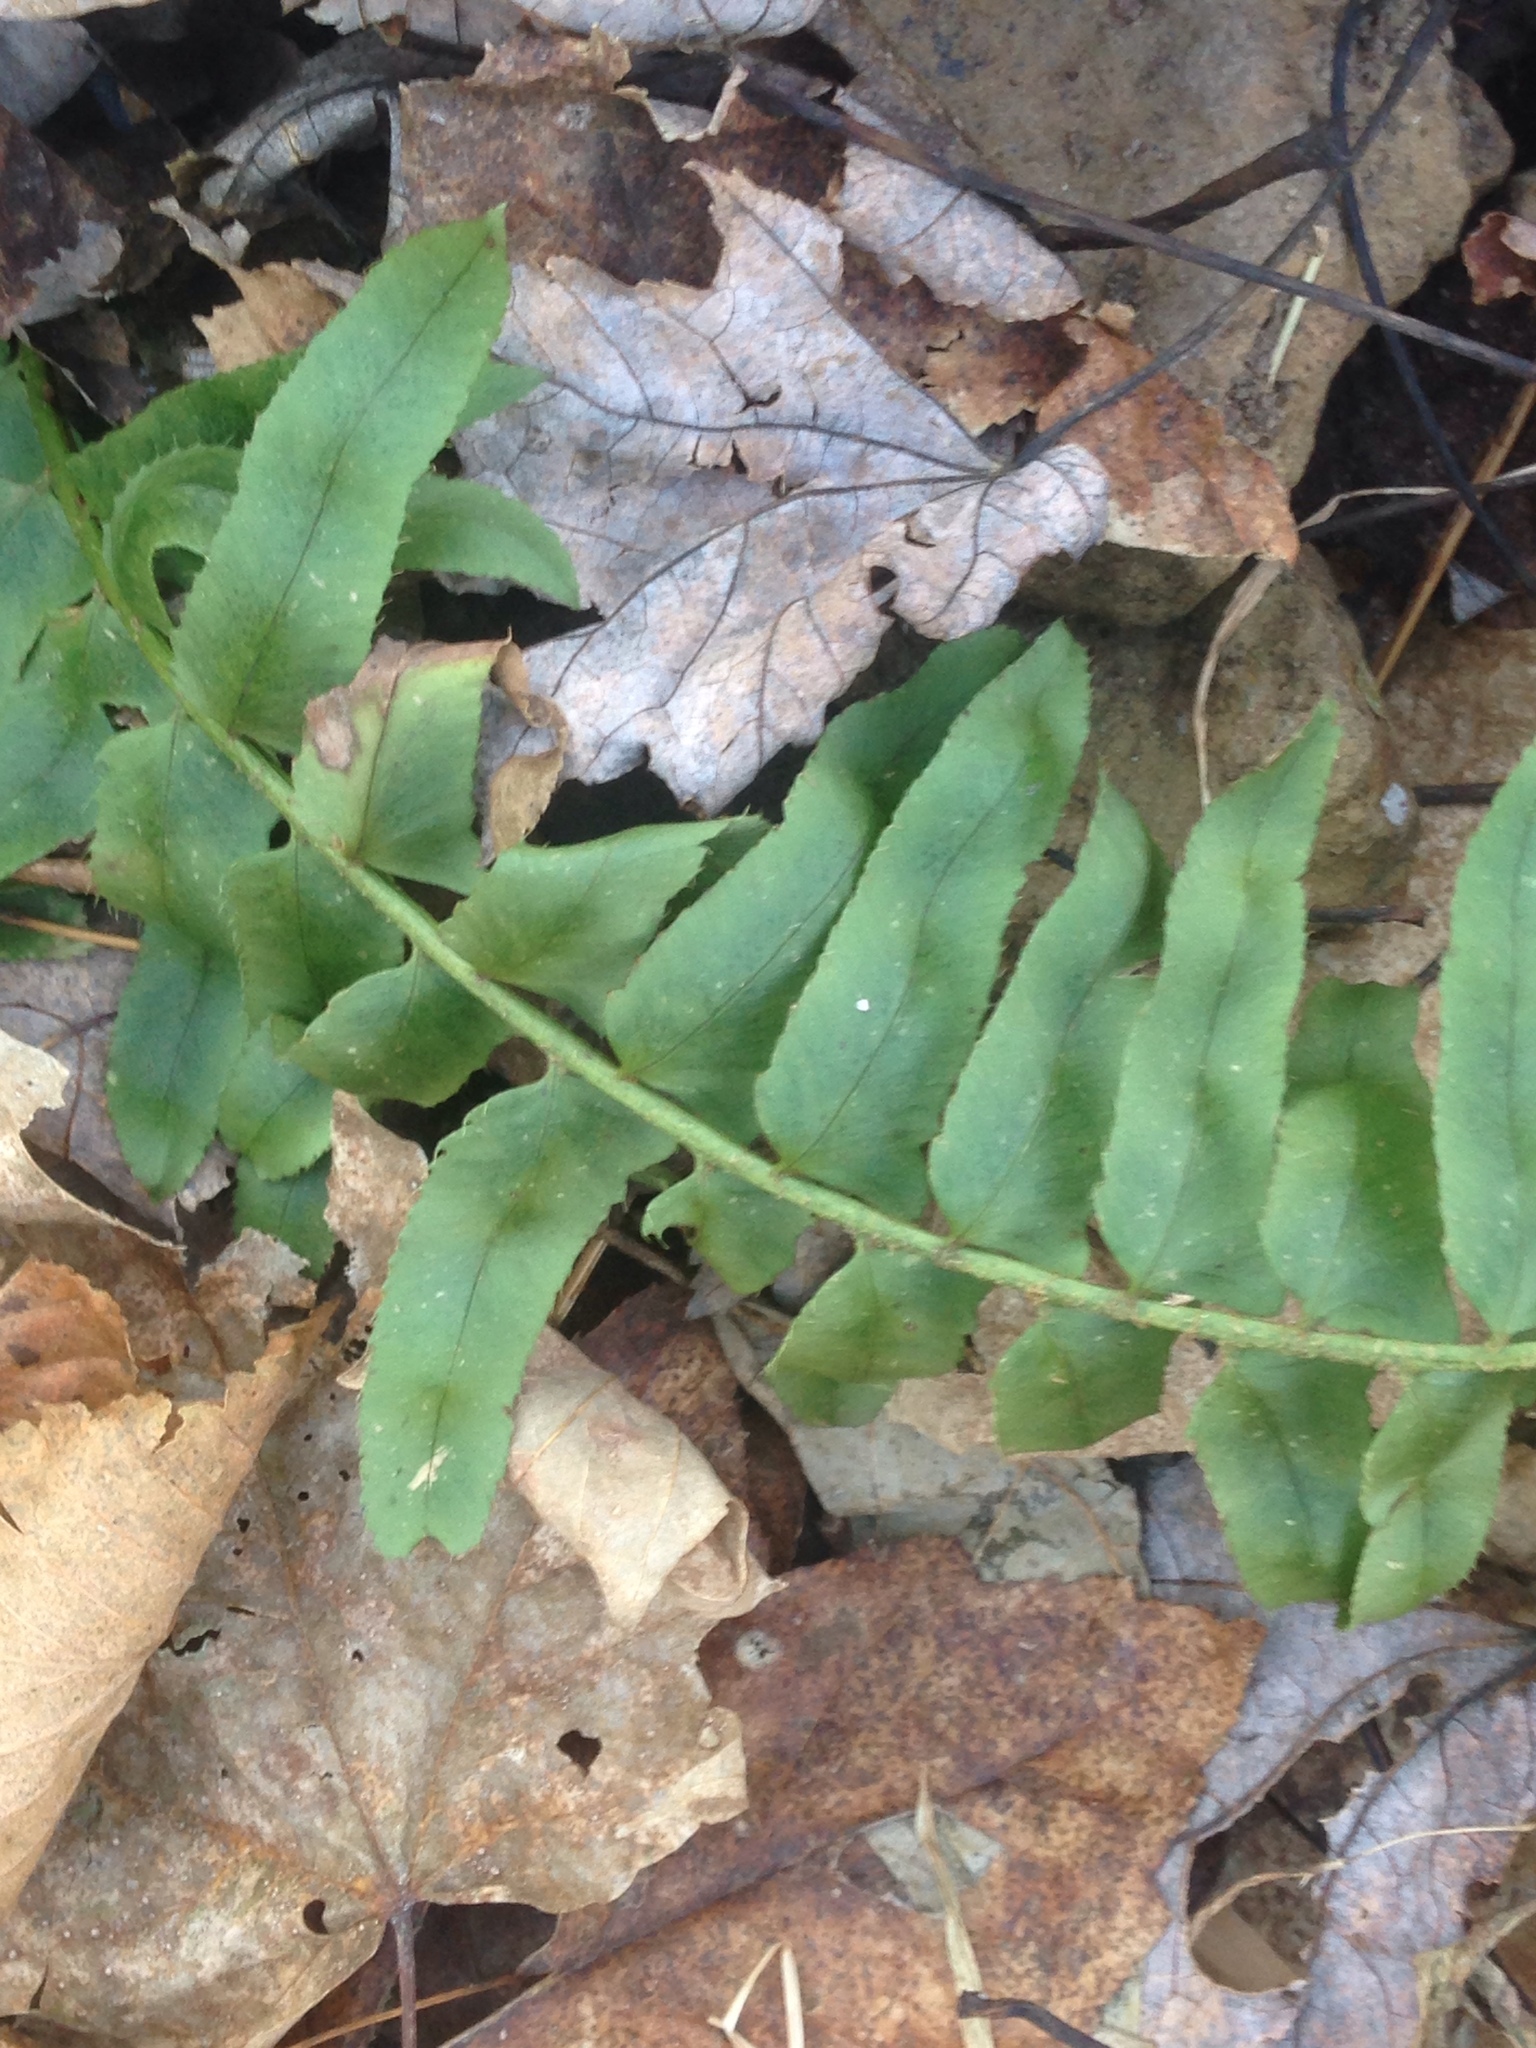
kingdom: Plantae
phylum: Tracheophyta
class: Polypodiopsida
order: Polypodiales
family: Dryopteridaceae
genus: Polystichum
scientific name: Polystichum acrostichoides
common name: Christmas fern
